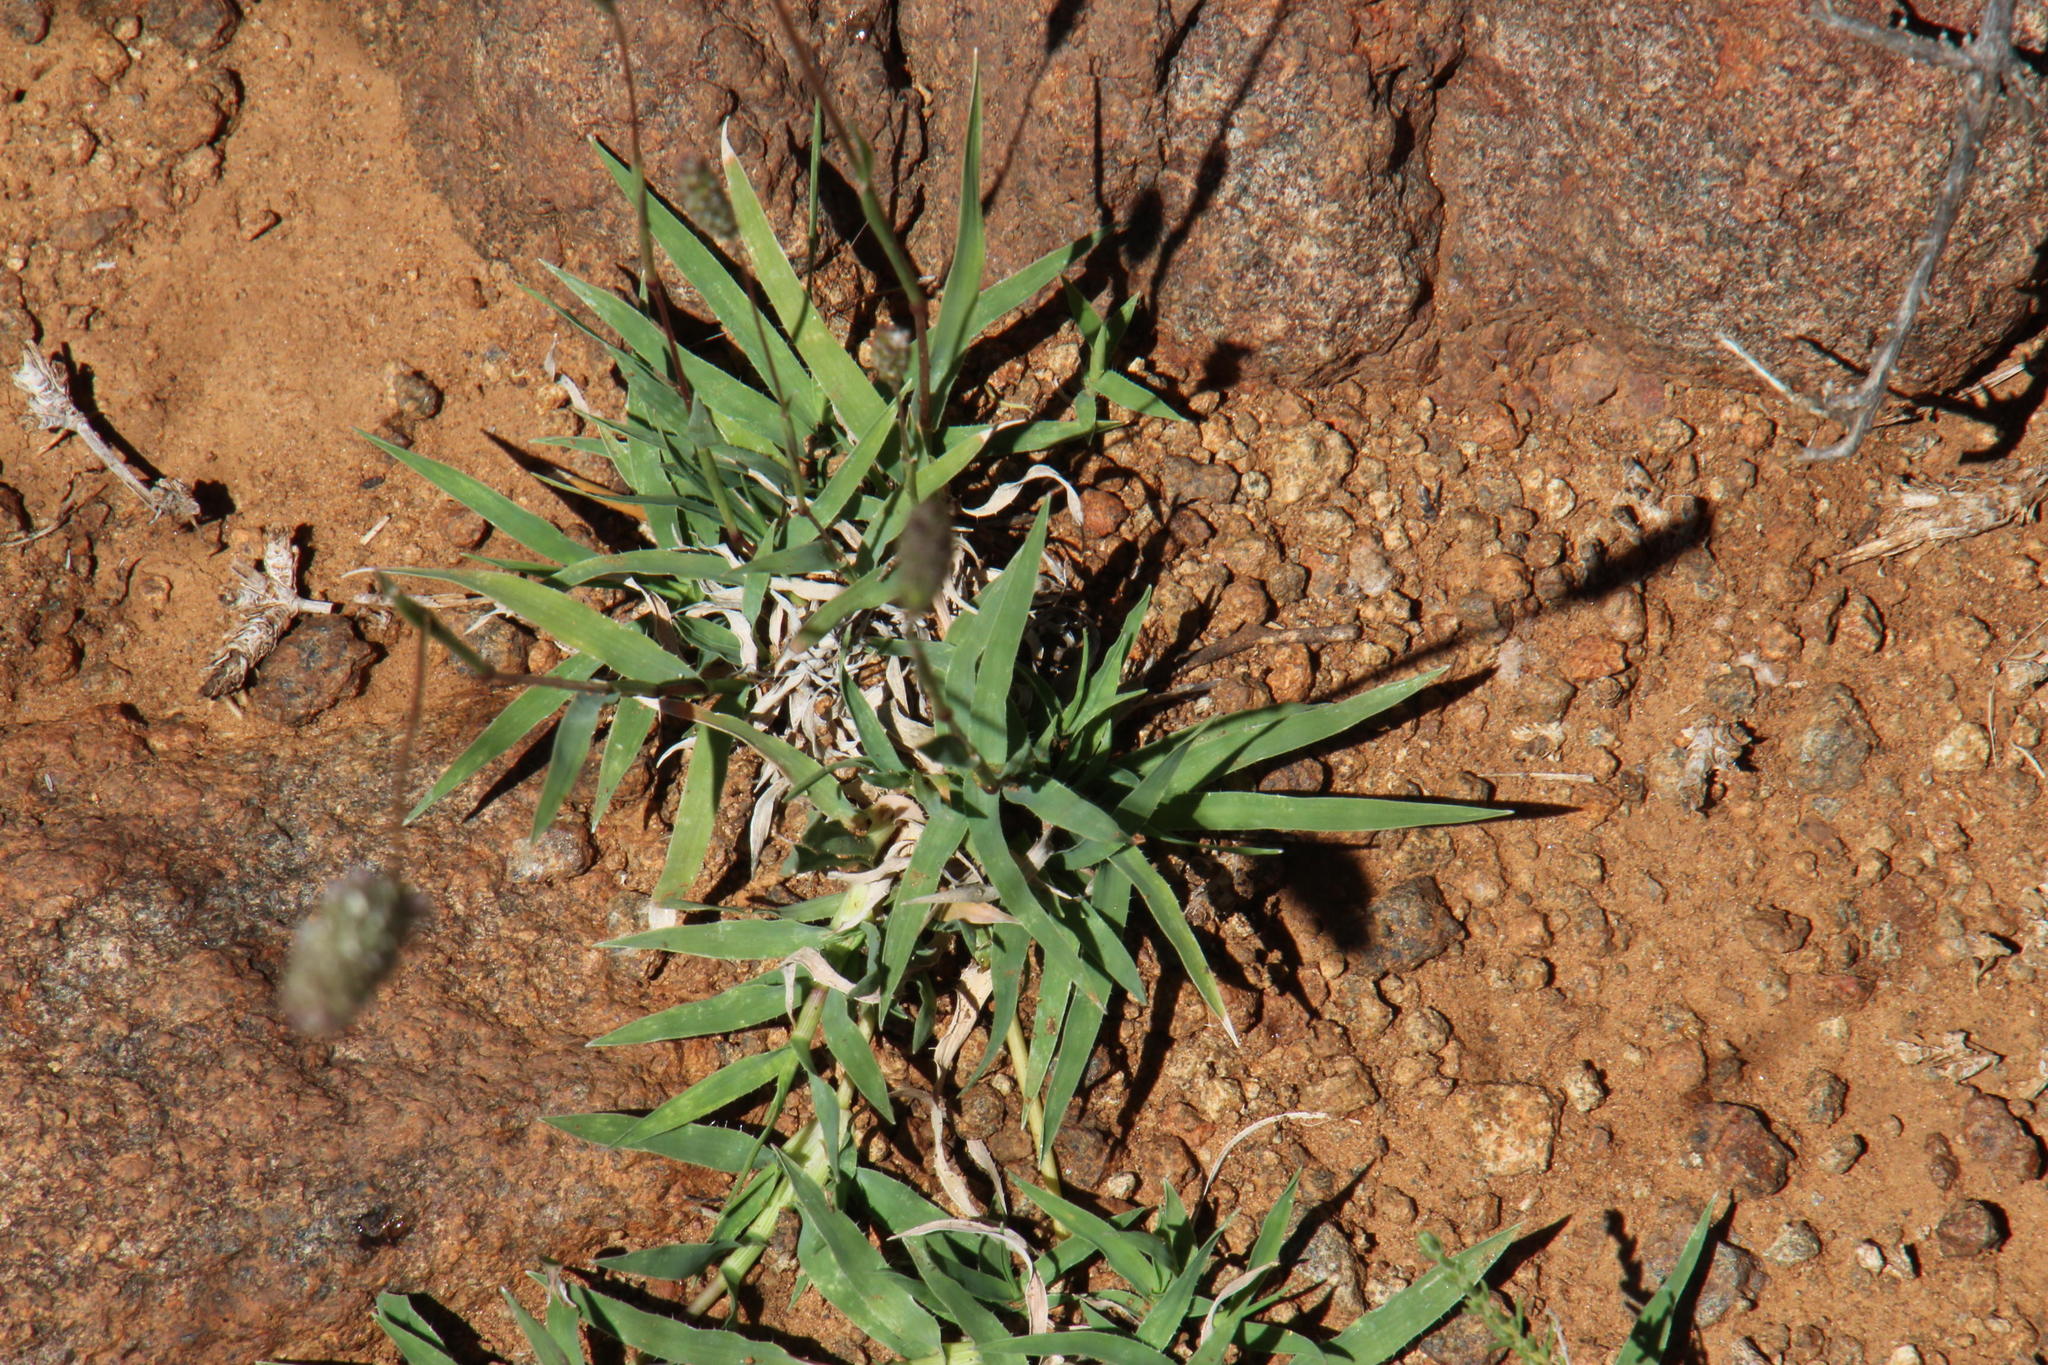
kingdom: Plantae
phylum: Tracheophyta
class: Liliopsida
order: Poales
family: Poaceae
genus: Tragus
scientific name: Tragus berteronianus
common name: African bur-grass
